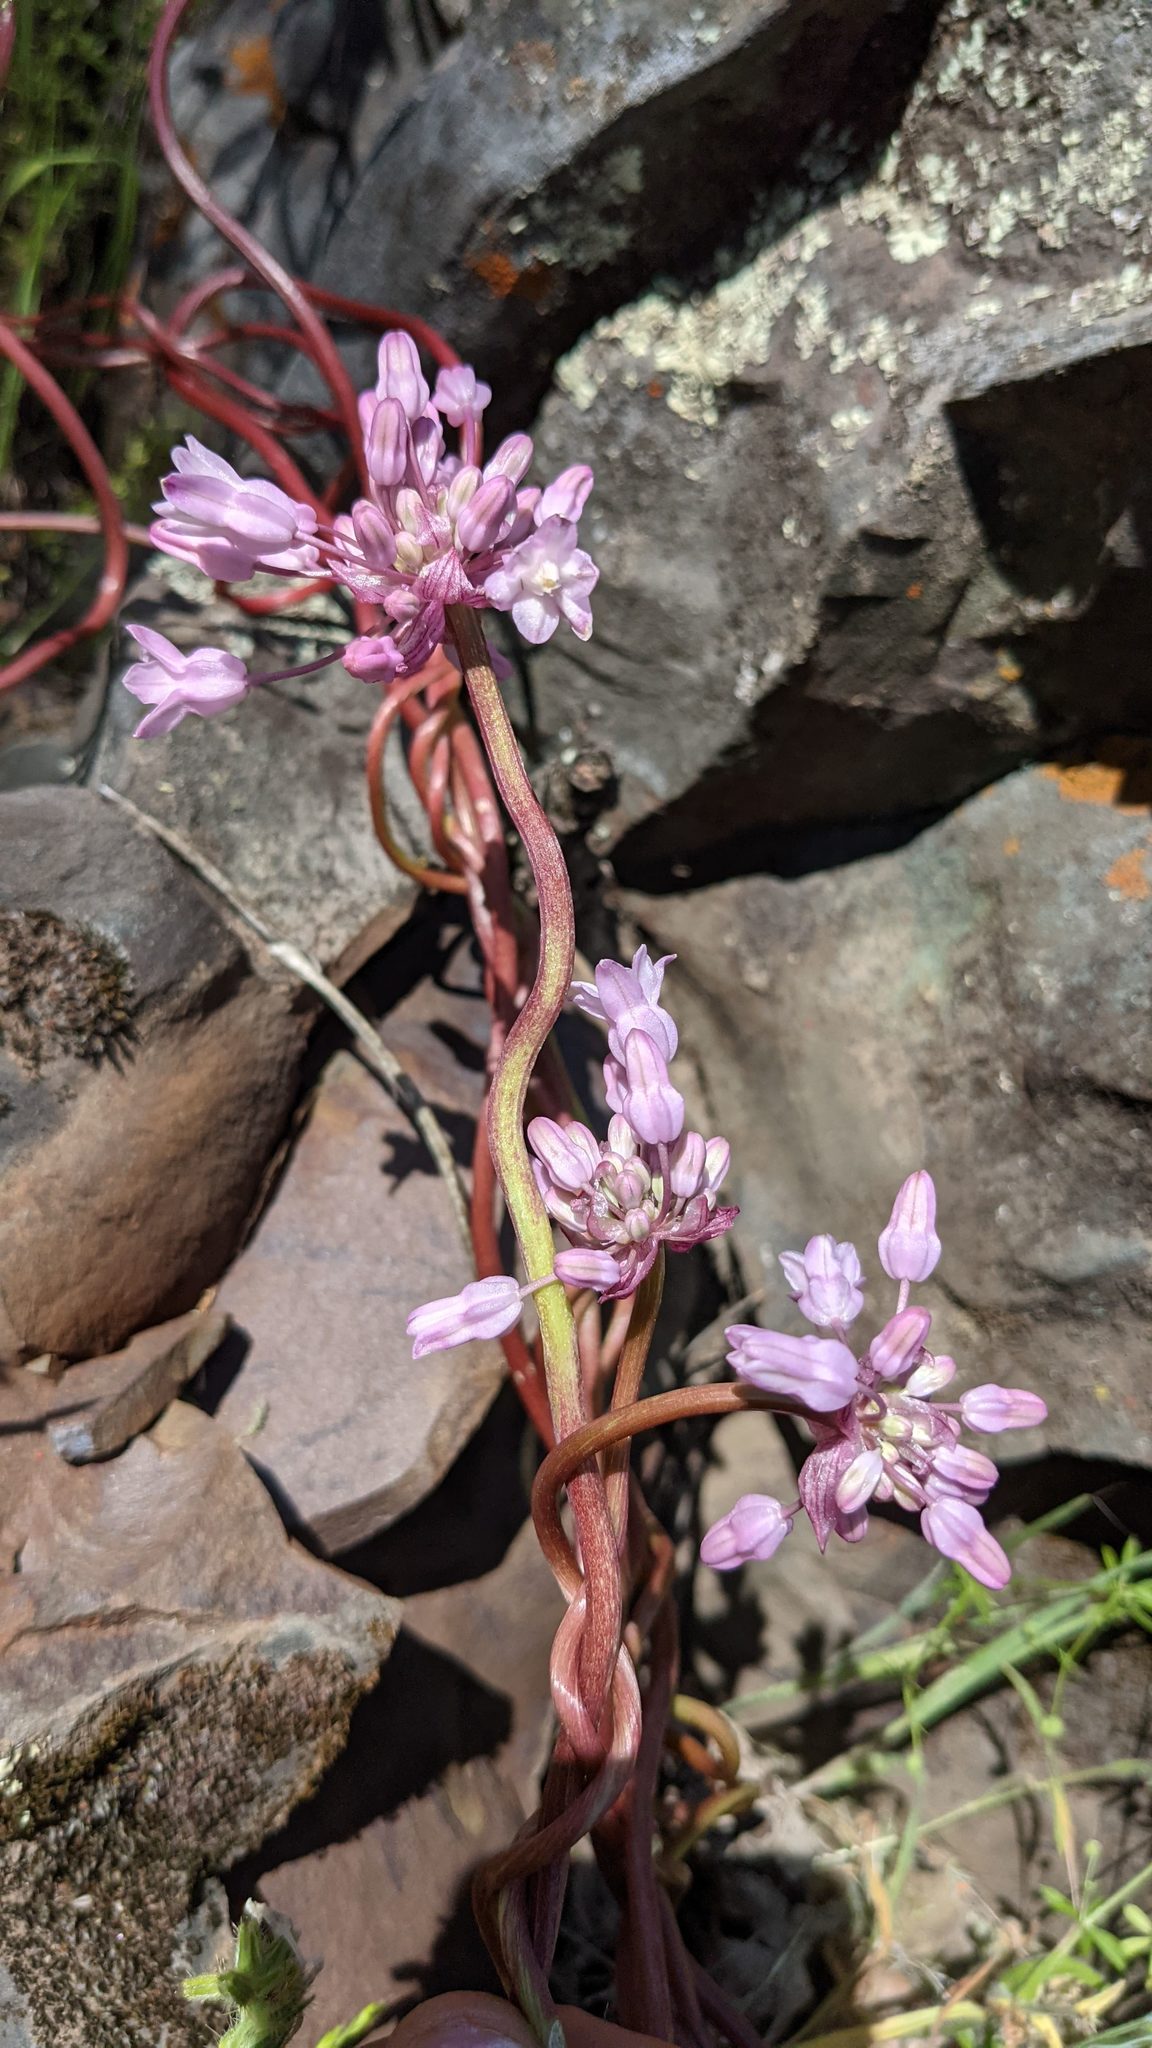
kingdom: Plantae
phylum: Tracheophyta
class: Liliopsida
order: Asparagales
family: Asparagaceae
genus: Dichelostemma
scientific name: Dichelostemma volubile
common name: Trining brodiaea
